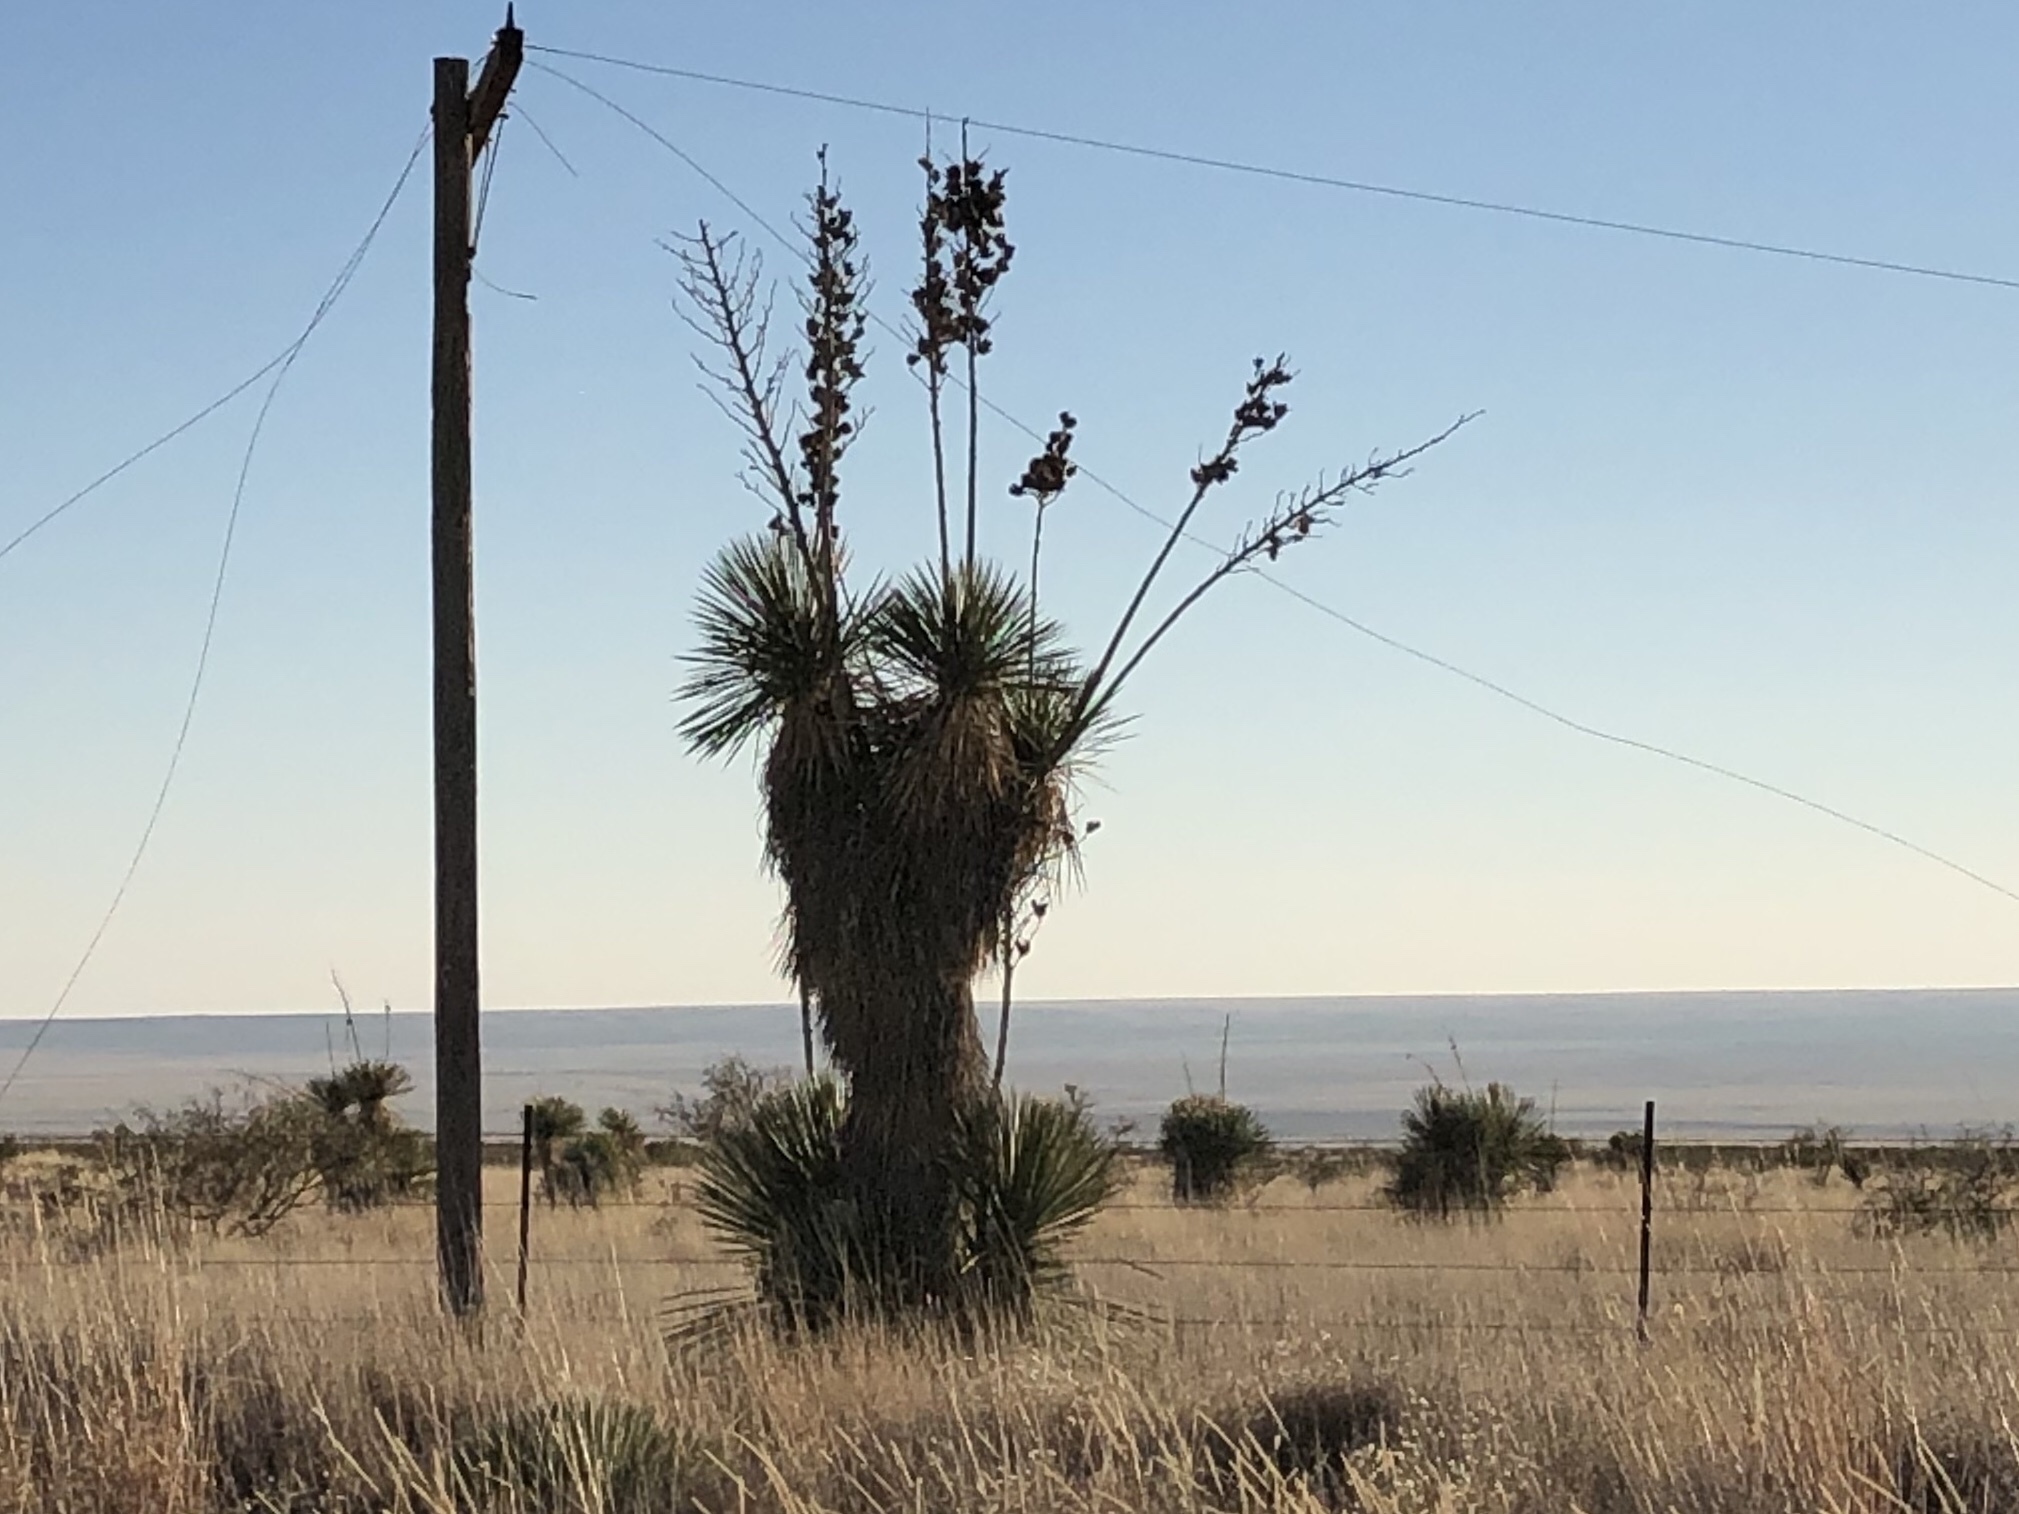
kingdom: Plantae
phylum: Tracheophyta
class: Liliopsida
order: Asparagales
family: Asparagaceae
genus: Yucca
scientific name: Yucca elata
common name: Palmella
